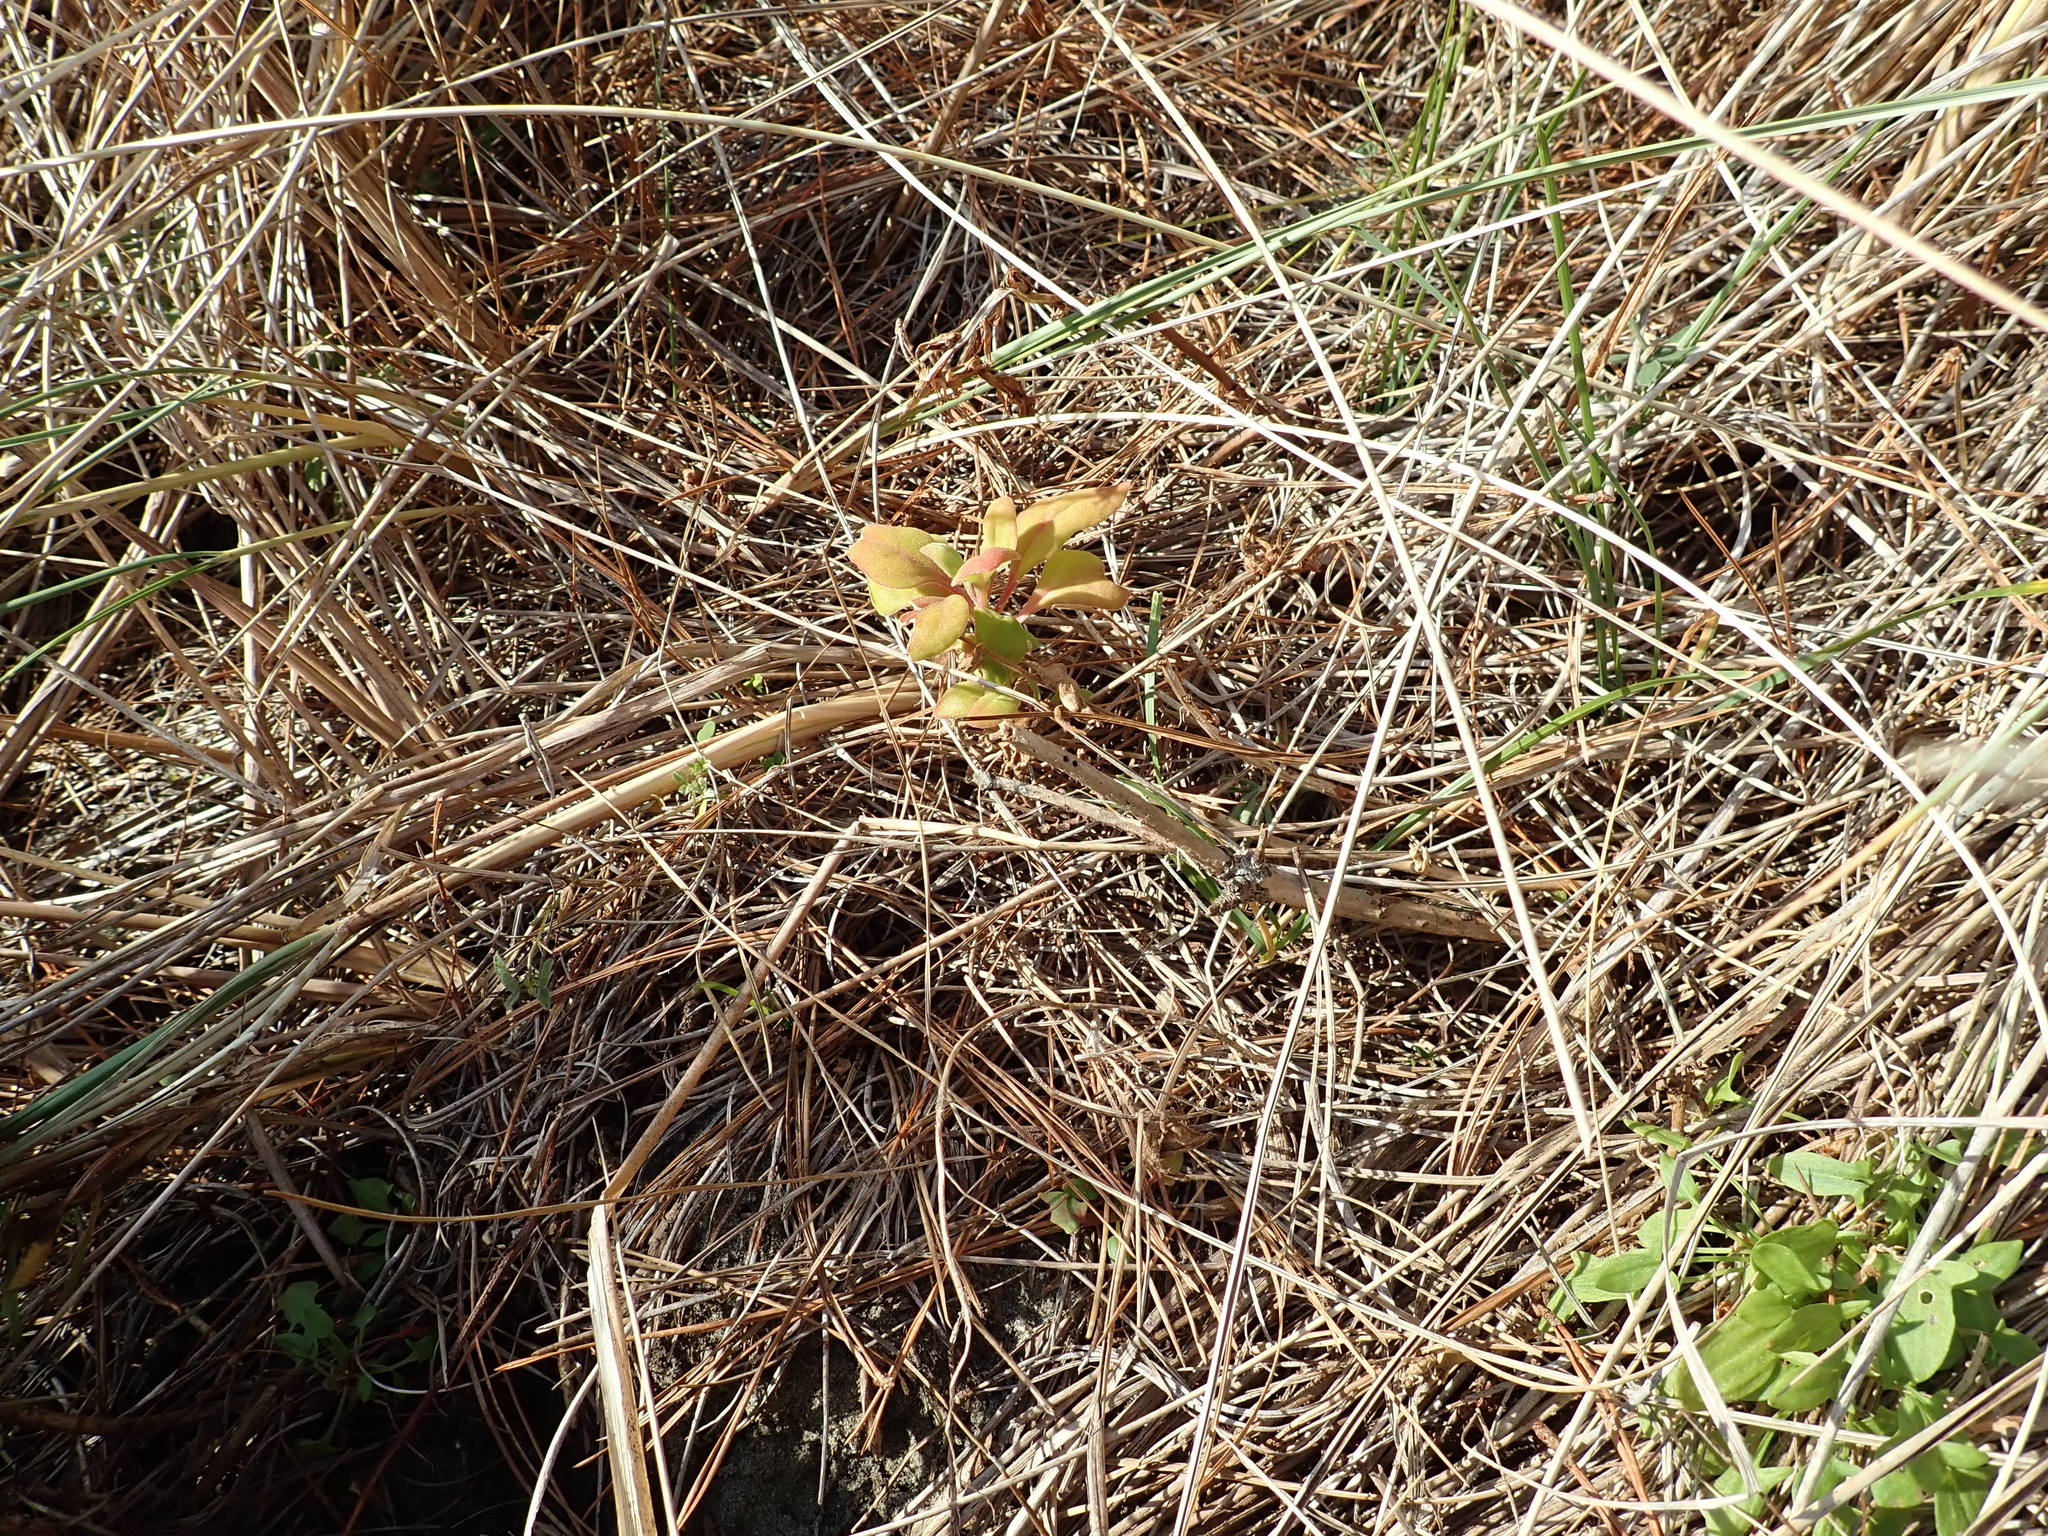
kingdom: Plantae
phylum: Tracheophyta
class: Magnoliopsida
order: Caryophyllales
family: Aizoaceae
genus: Tetragonia
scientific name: Tetragonia implexicoma
